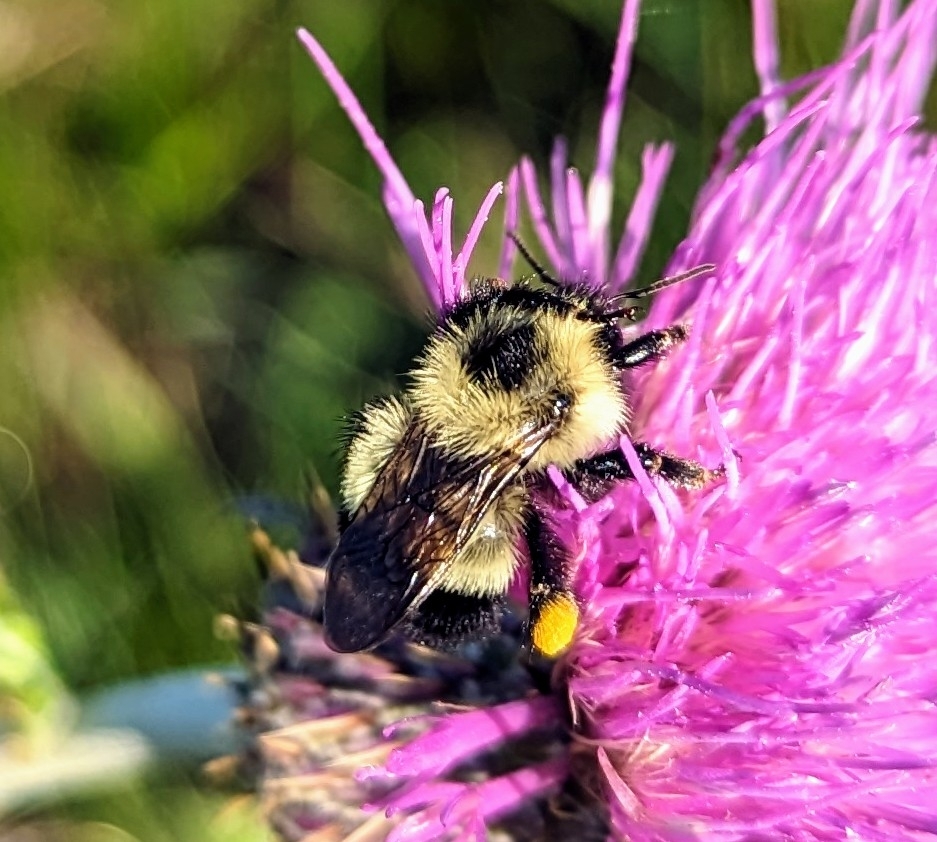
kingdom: Animalia
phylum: Arthropoda
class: Insecta
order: Hymenoptera
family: Apidae
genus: Bombus
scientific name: Bombus vagans
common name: Half-black bumble bee
